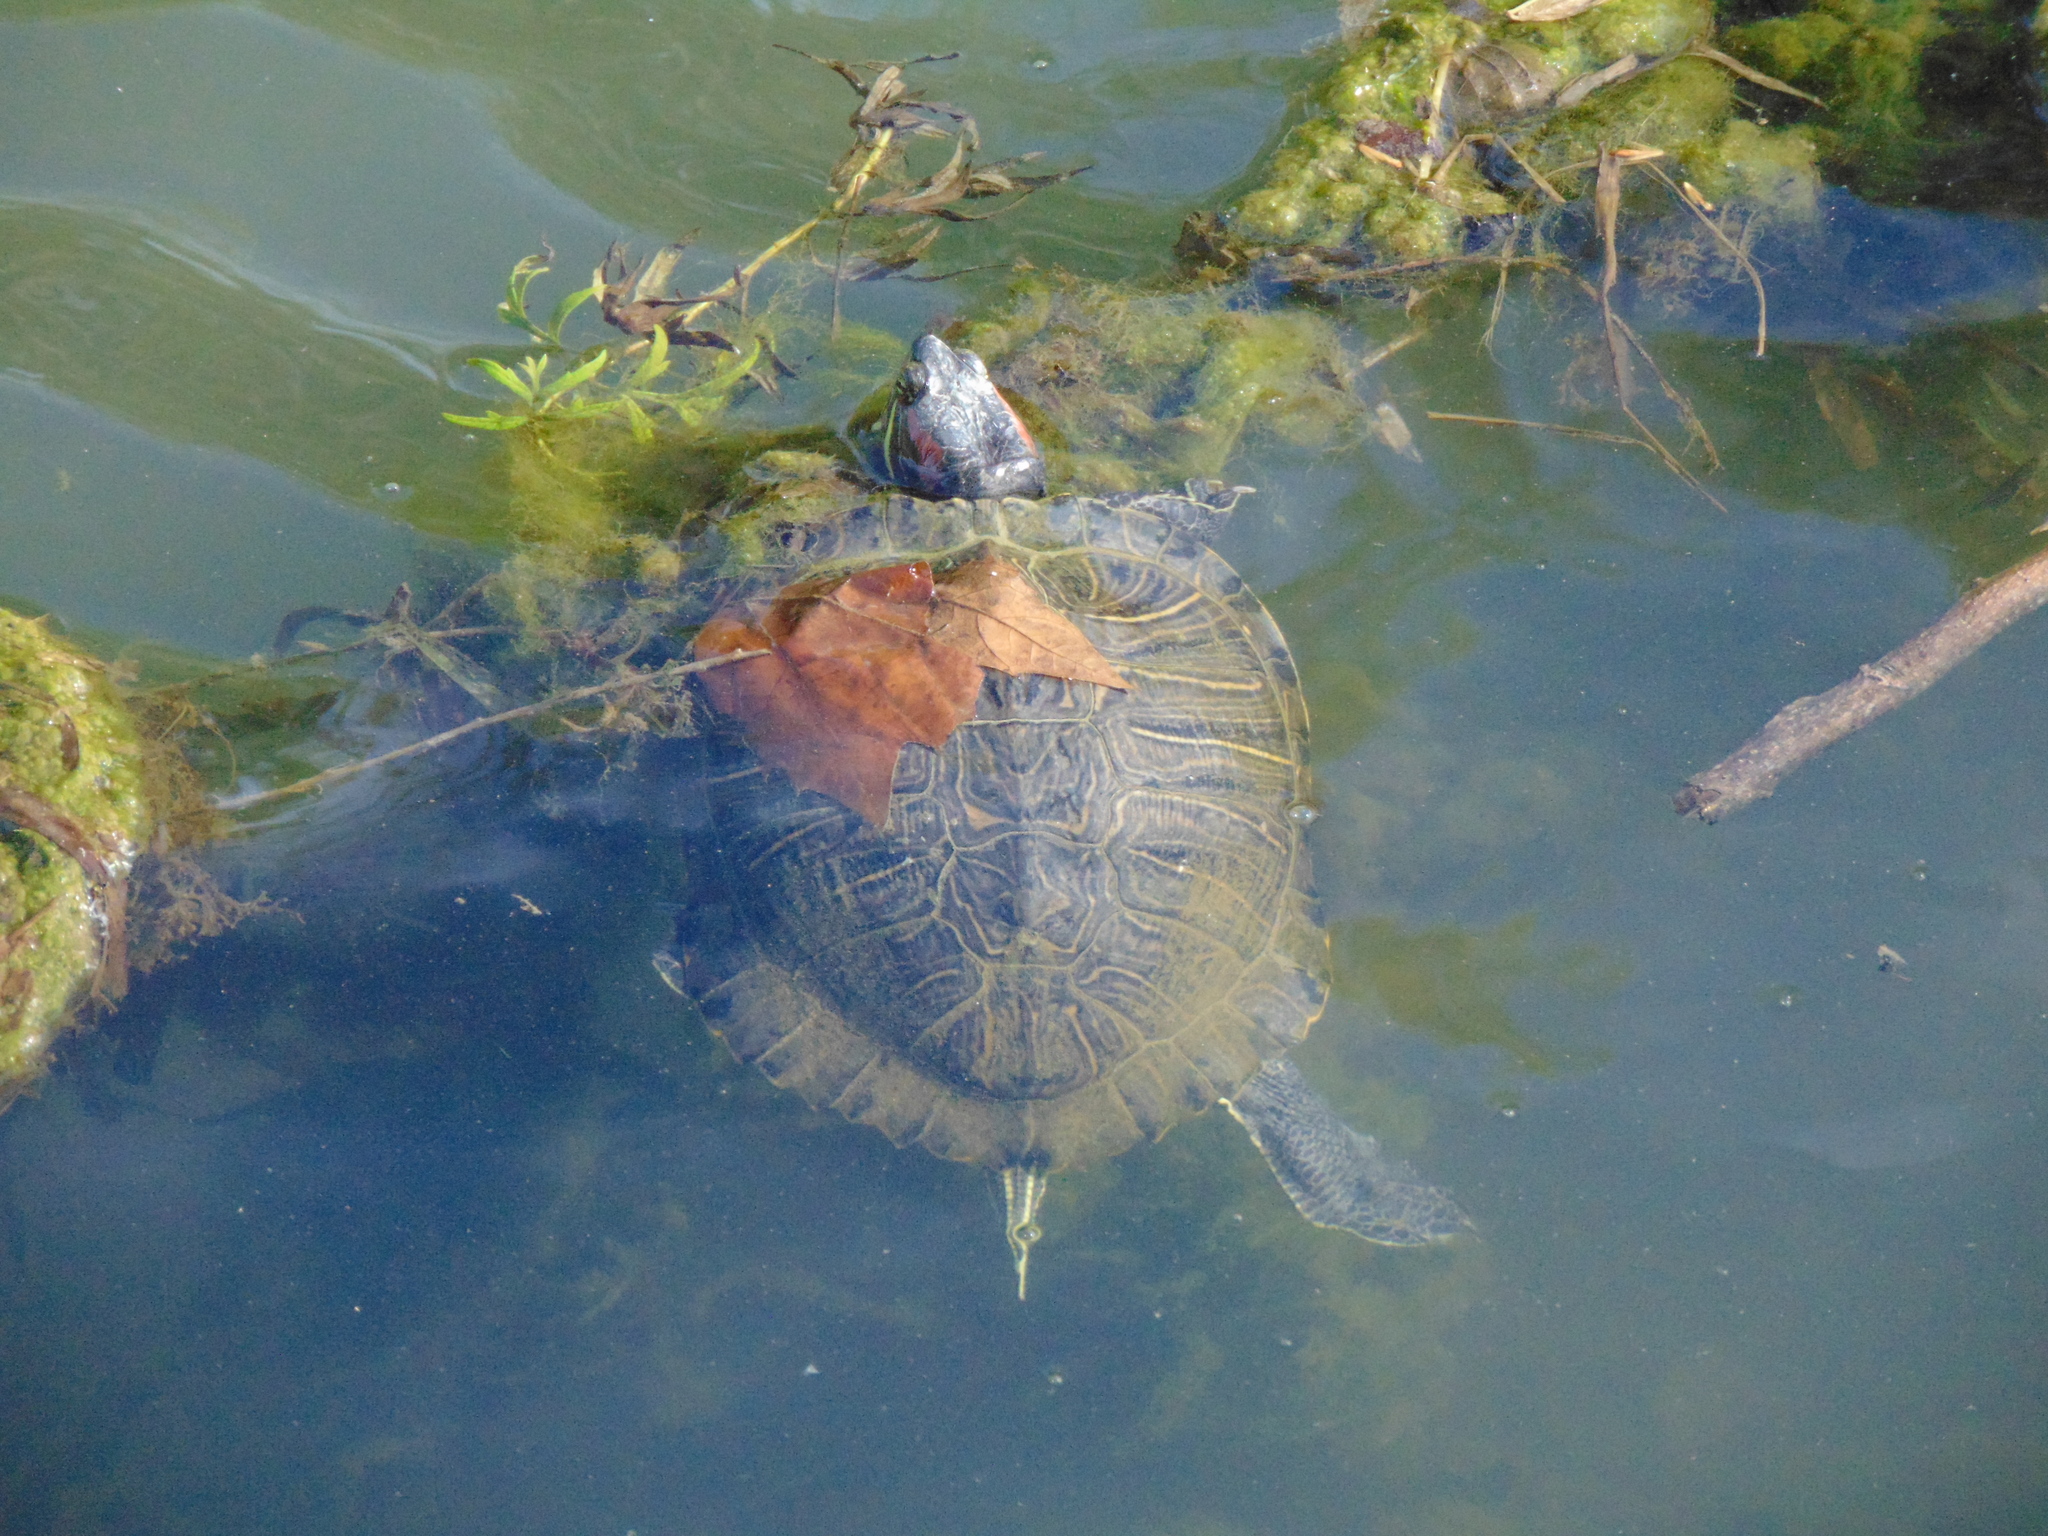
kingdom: Animalia
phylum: Chordata
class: Testudines
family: Emydidae
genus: Trachemys
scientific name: Trachemys scripta
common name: Slider
